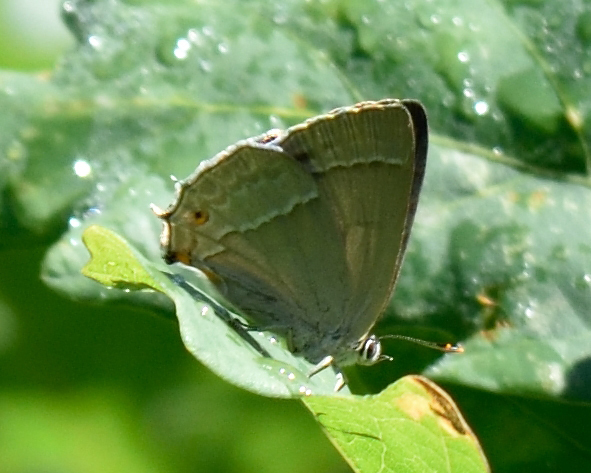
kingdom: Animalia
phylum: Arthropoda
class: Insecta
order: Lepidoptera
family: Lycaenidae
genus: Quercusia
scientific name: Quercusia quercus
